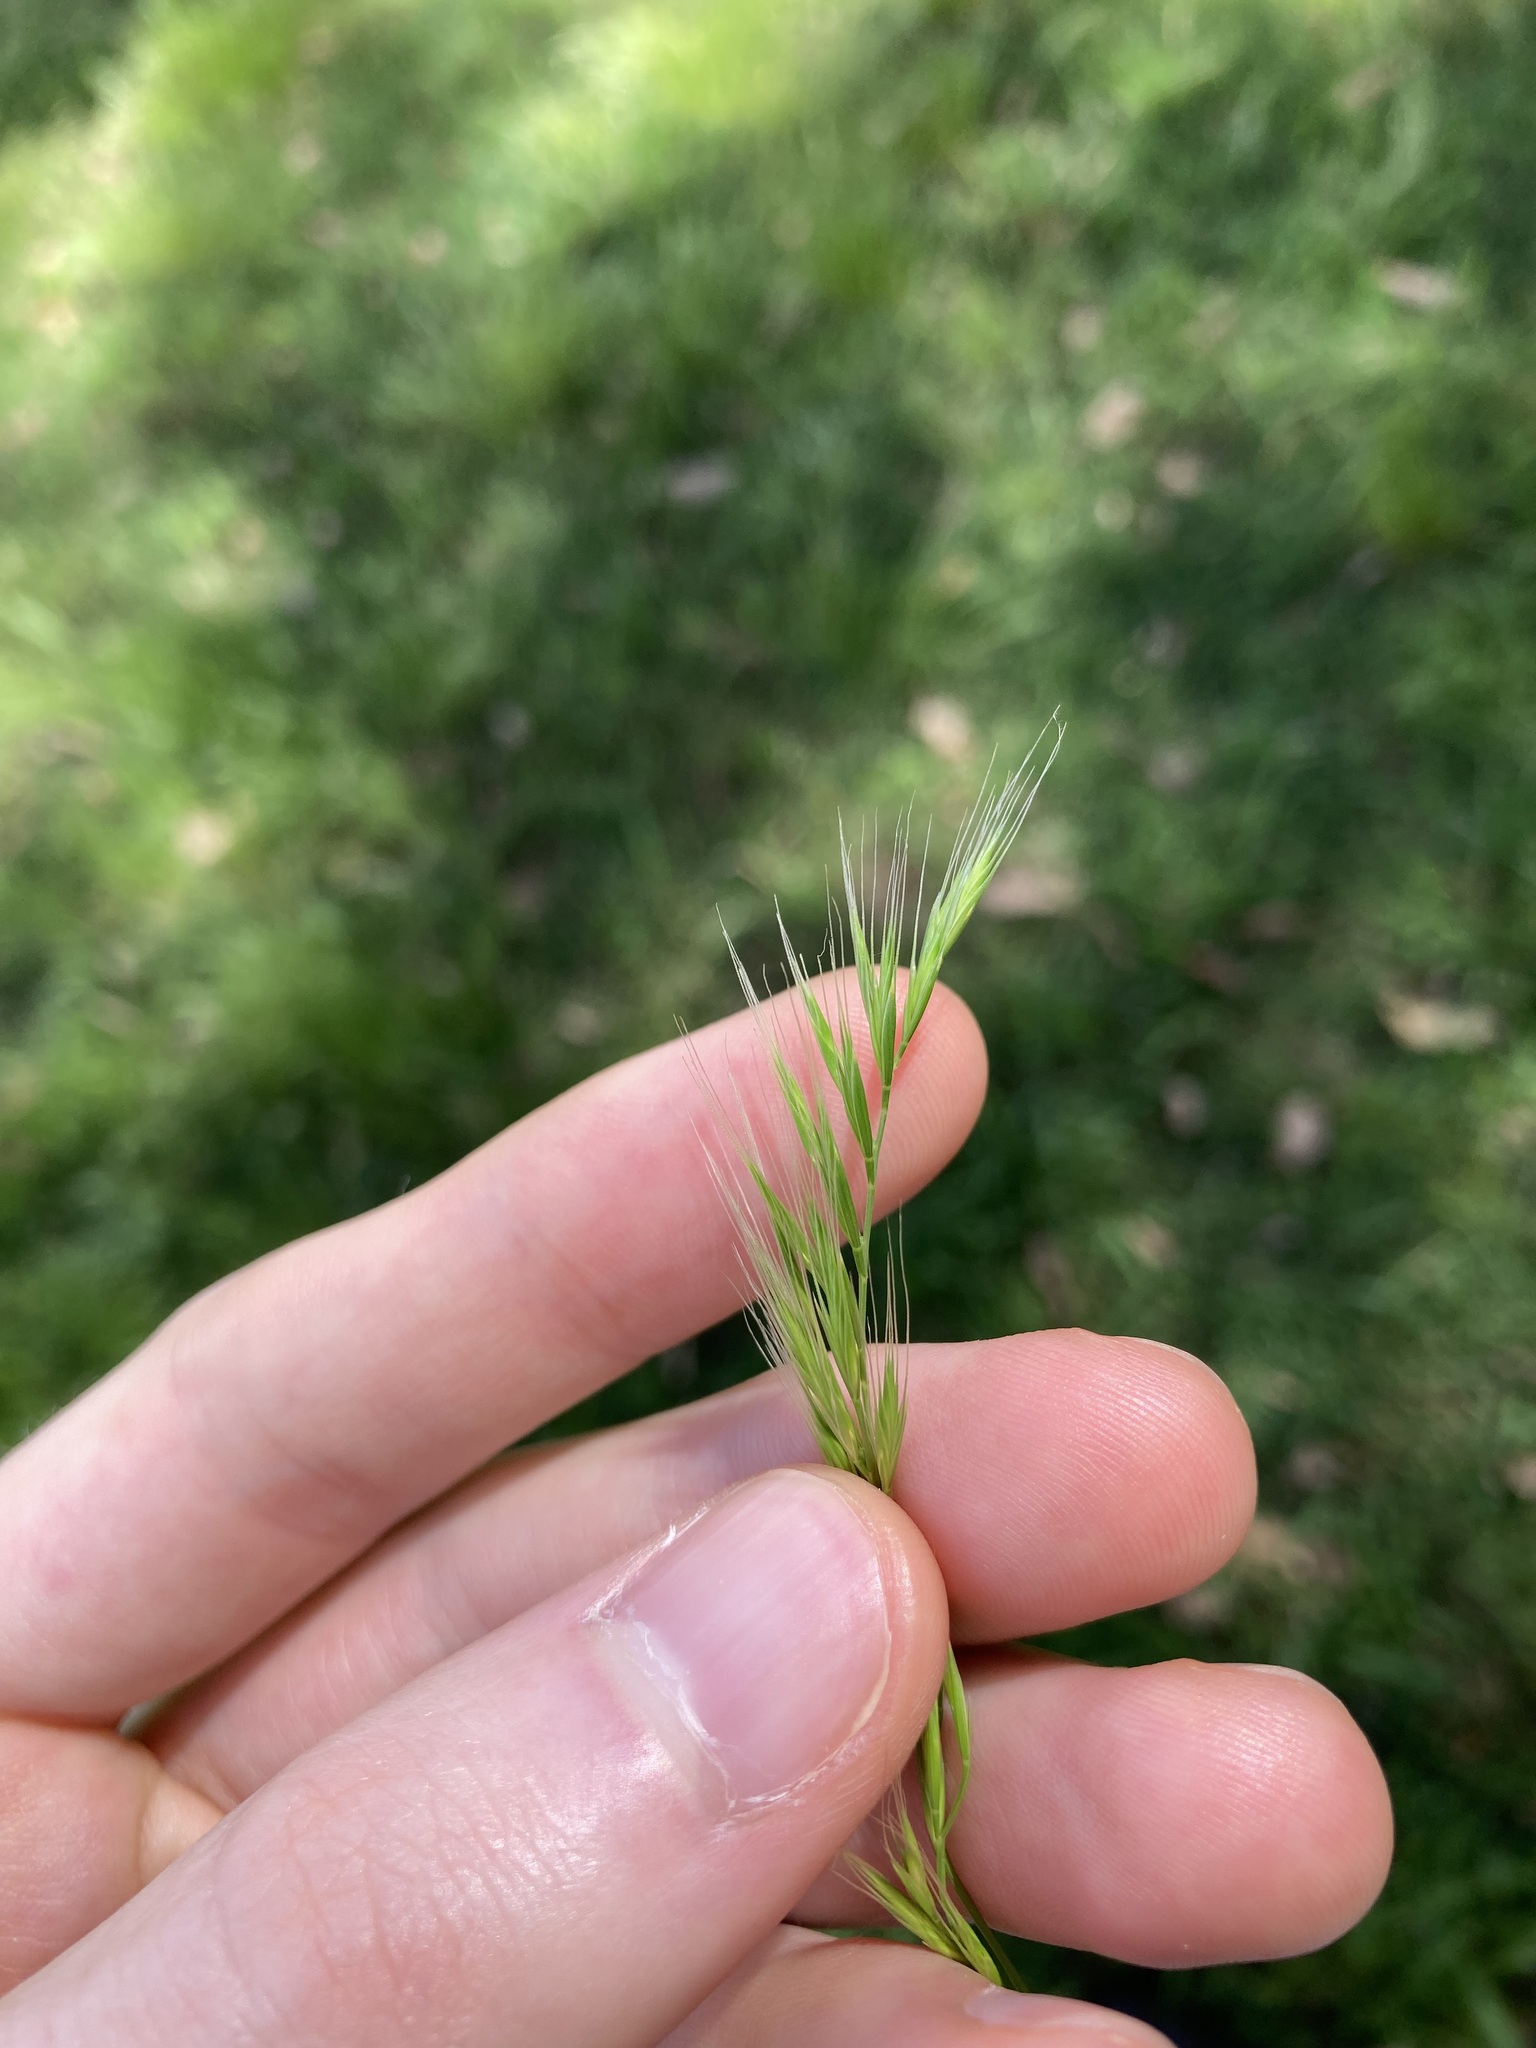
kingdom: Plantae
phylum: Tracheophyta
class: Liliopsida
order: Poales
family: Poaceae
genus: Festuca
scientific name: Festuca muralis
